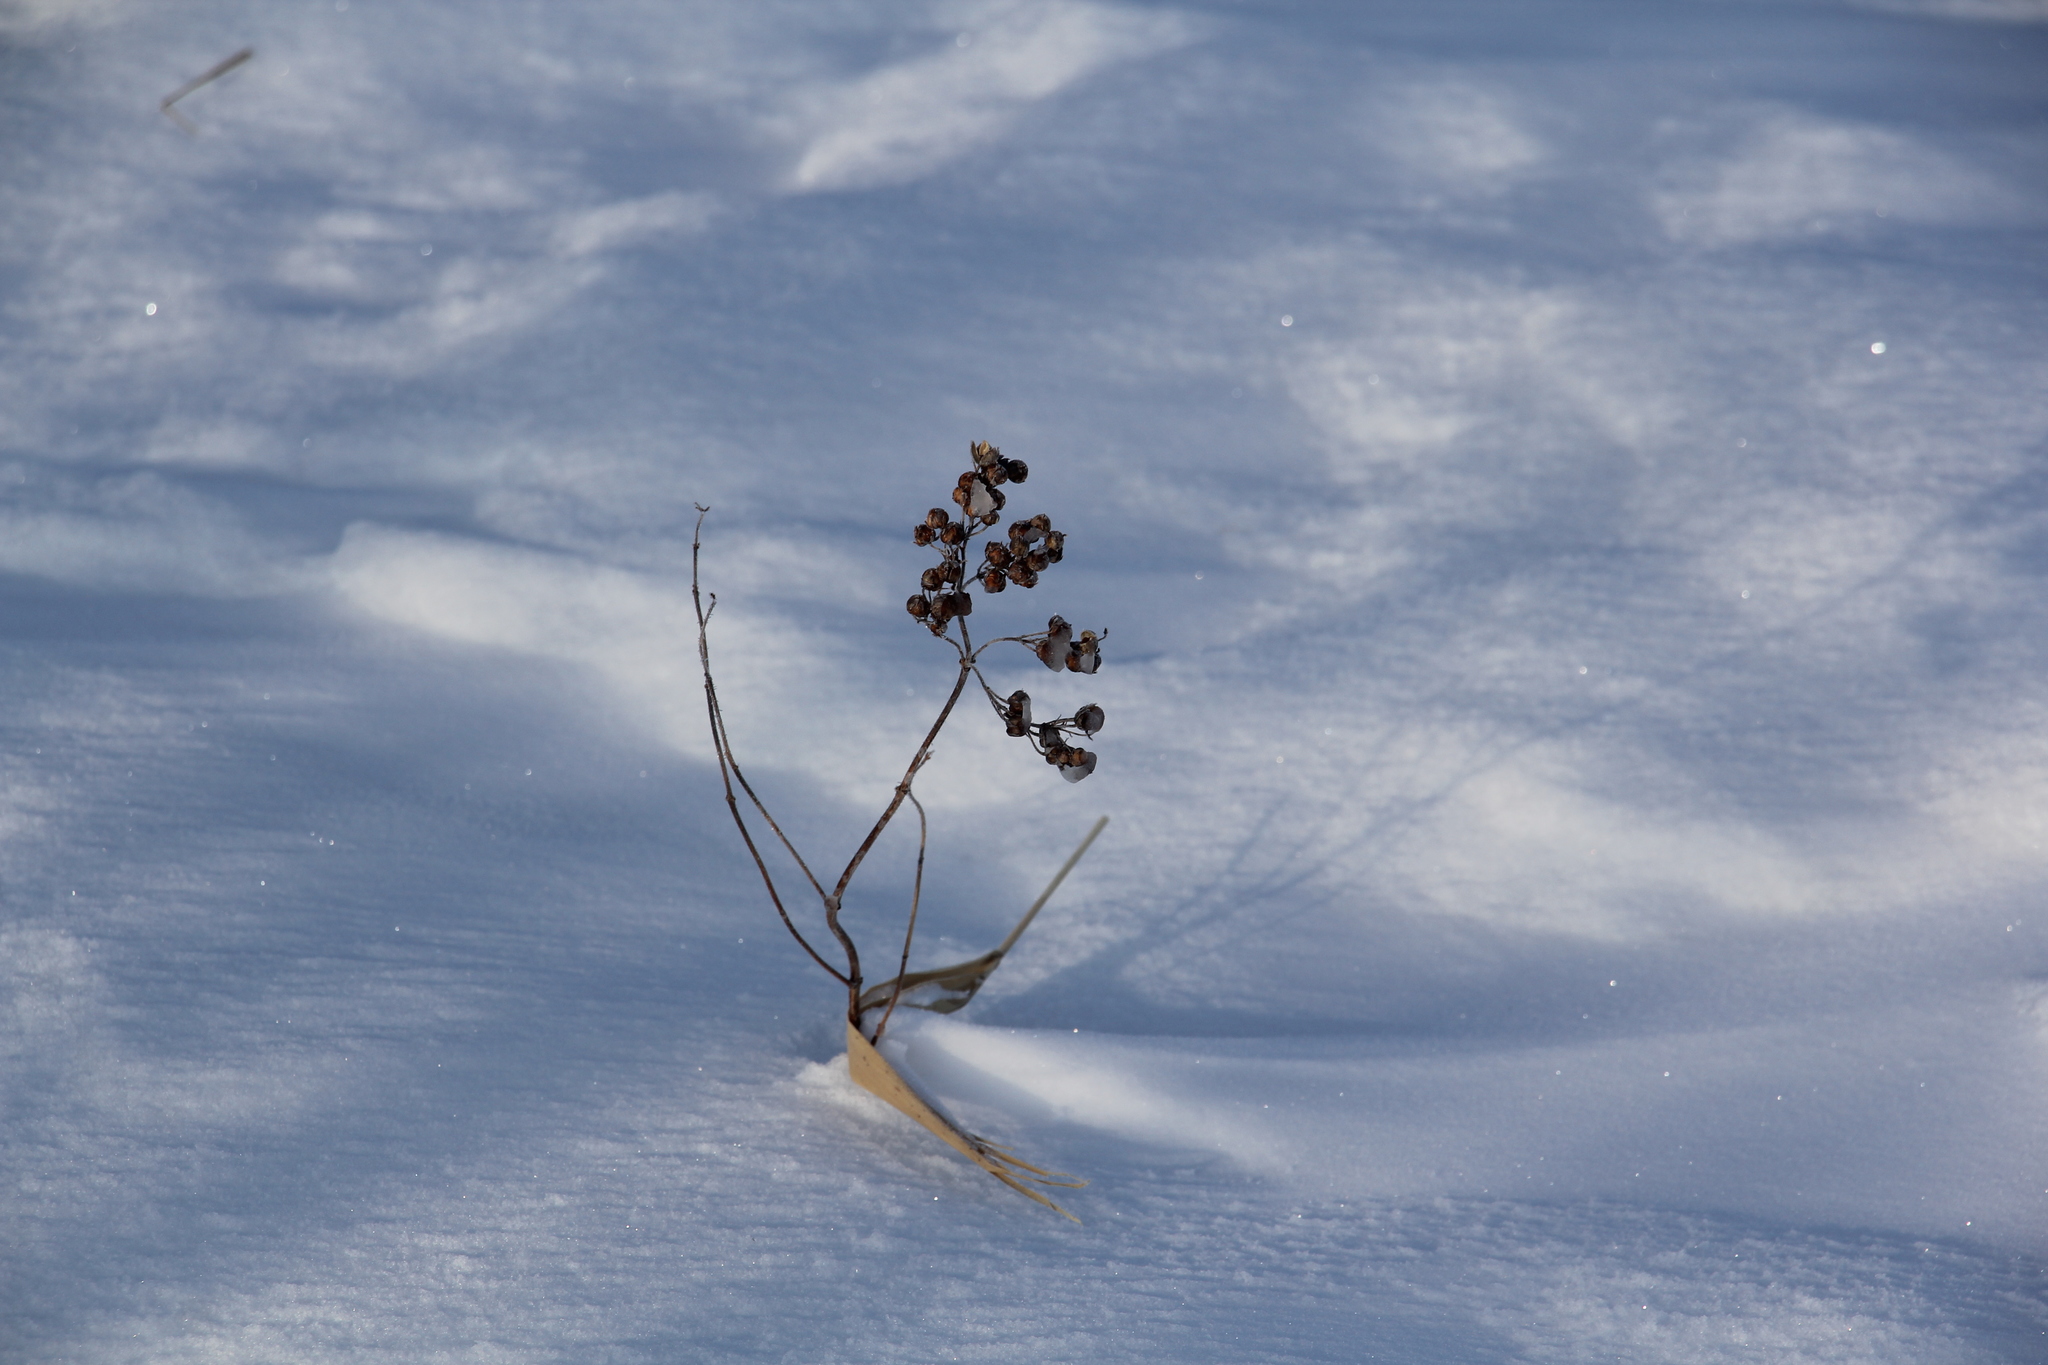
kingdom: Plantae
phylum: Tracheophyta
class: Magnoliopsida
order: Ericales
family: Primulaceae
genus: Lysimachia
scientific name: Lysimachia vulgaris
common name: Yellow loosestrife
